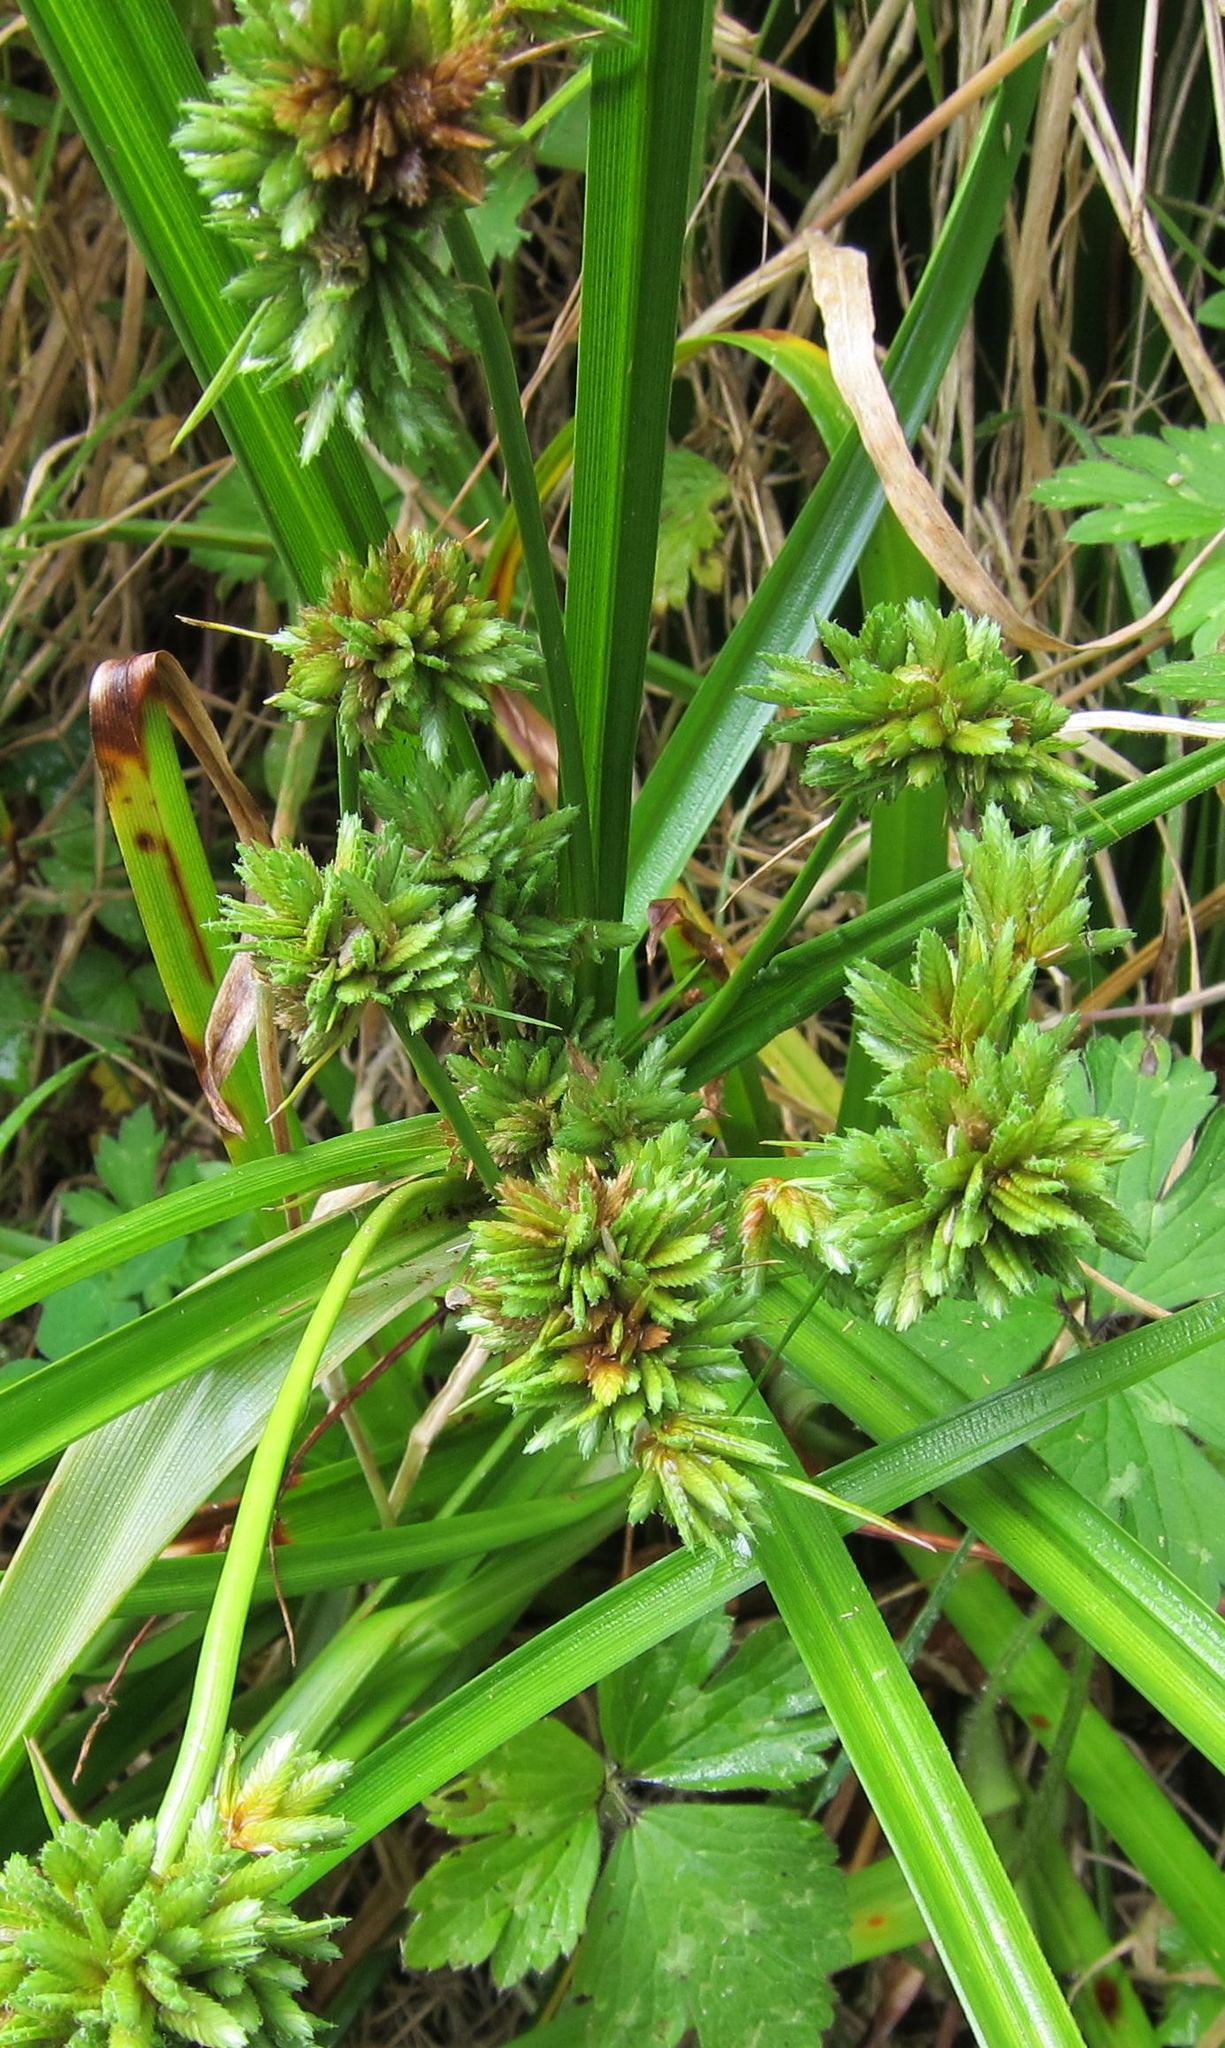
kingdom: Plantae
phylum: Tracheophyta
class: Liliopsida
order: Poales
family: Cyperaceae
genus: Cyperus
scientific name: Cyperus eragrostis
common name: Tall flatsedge
